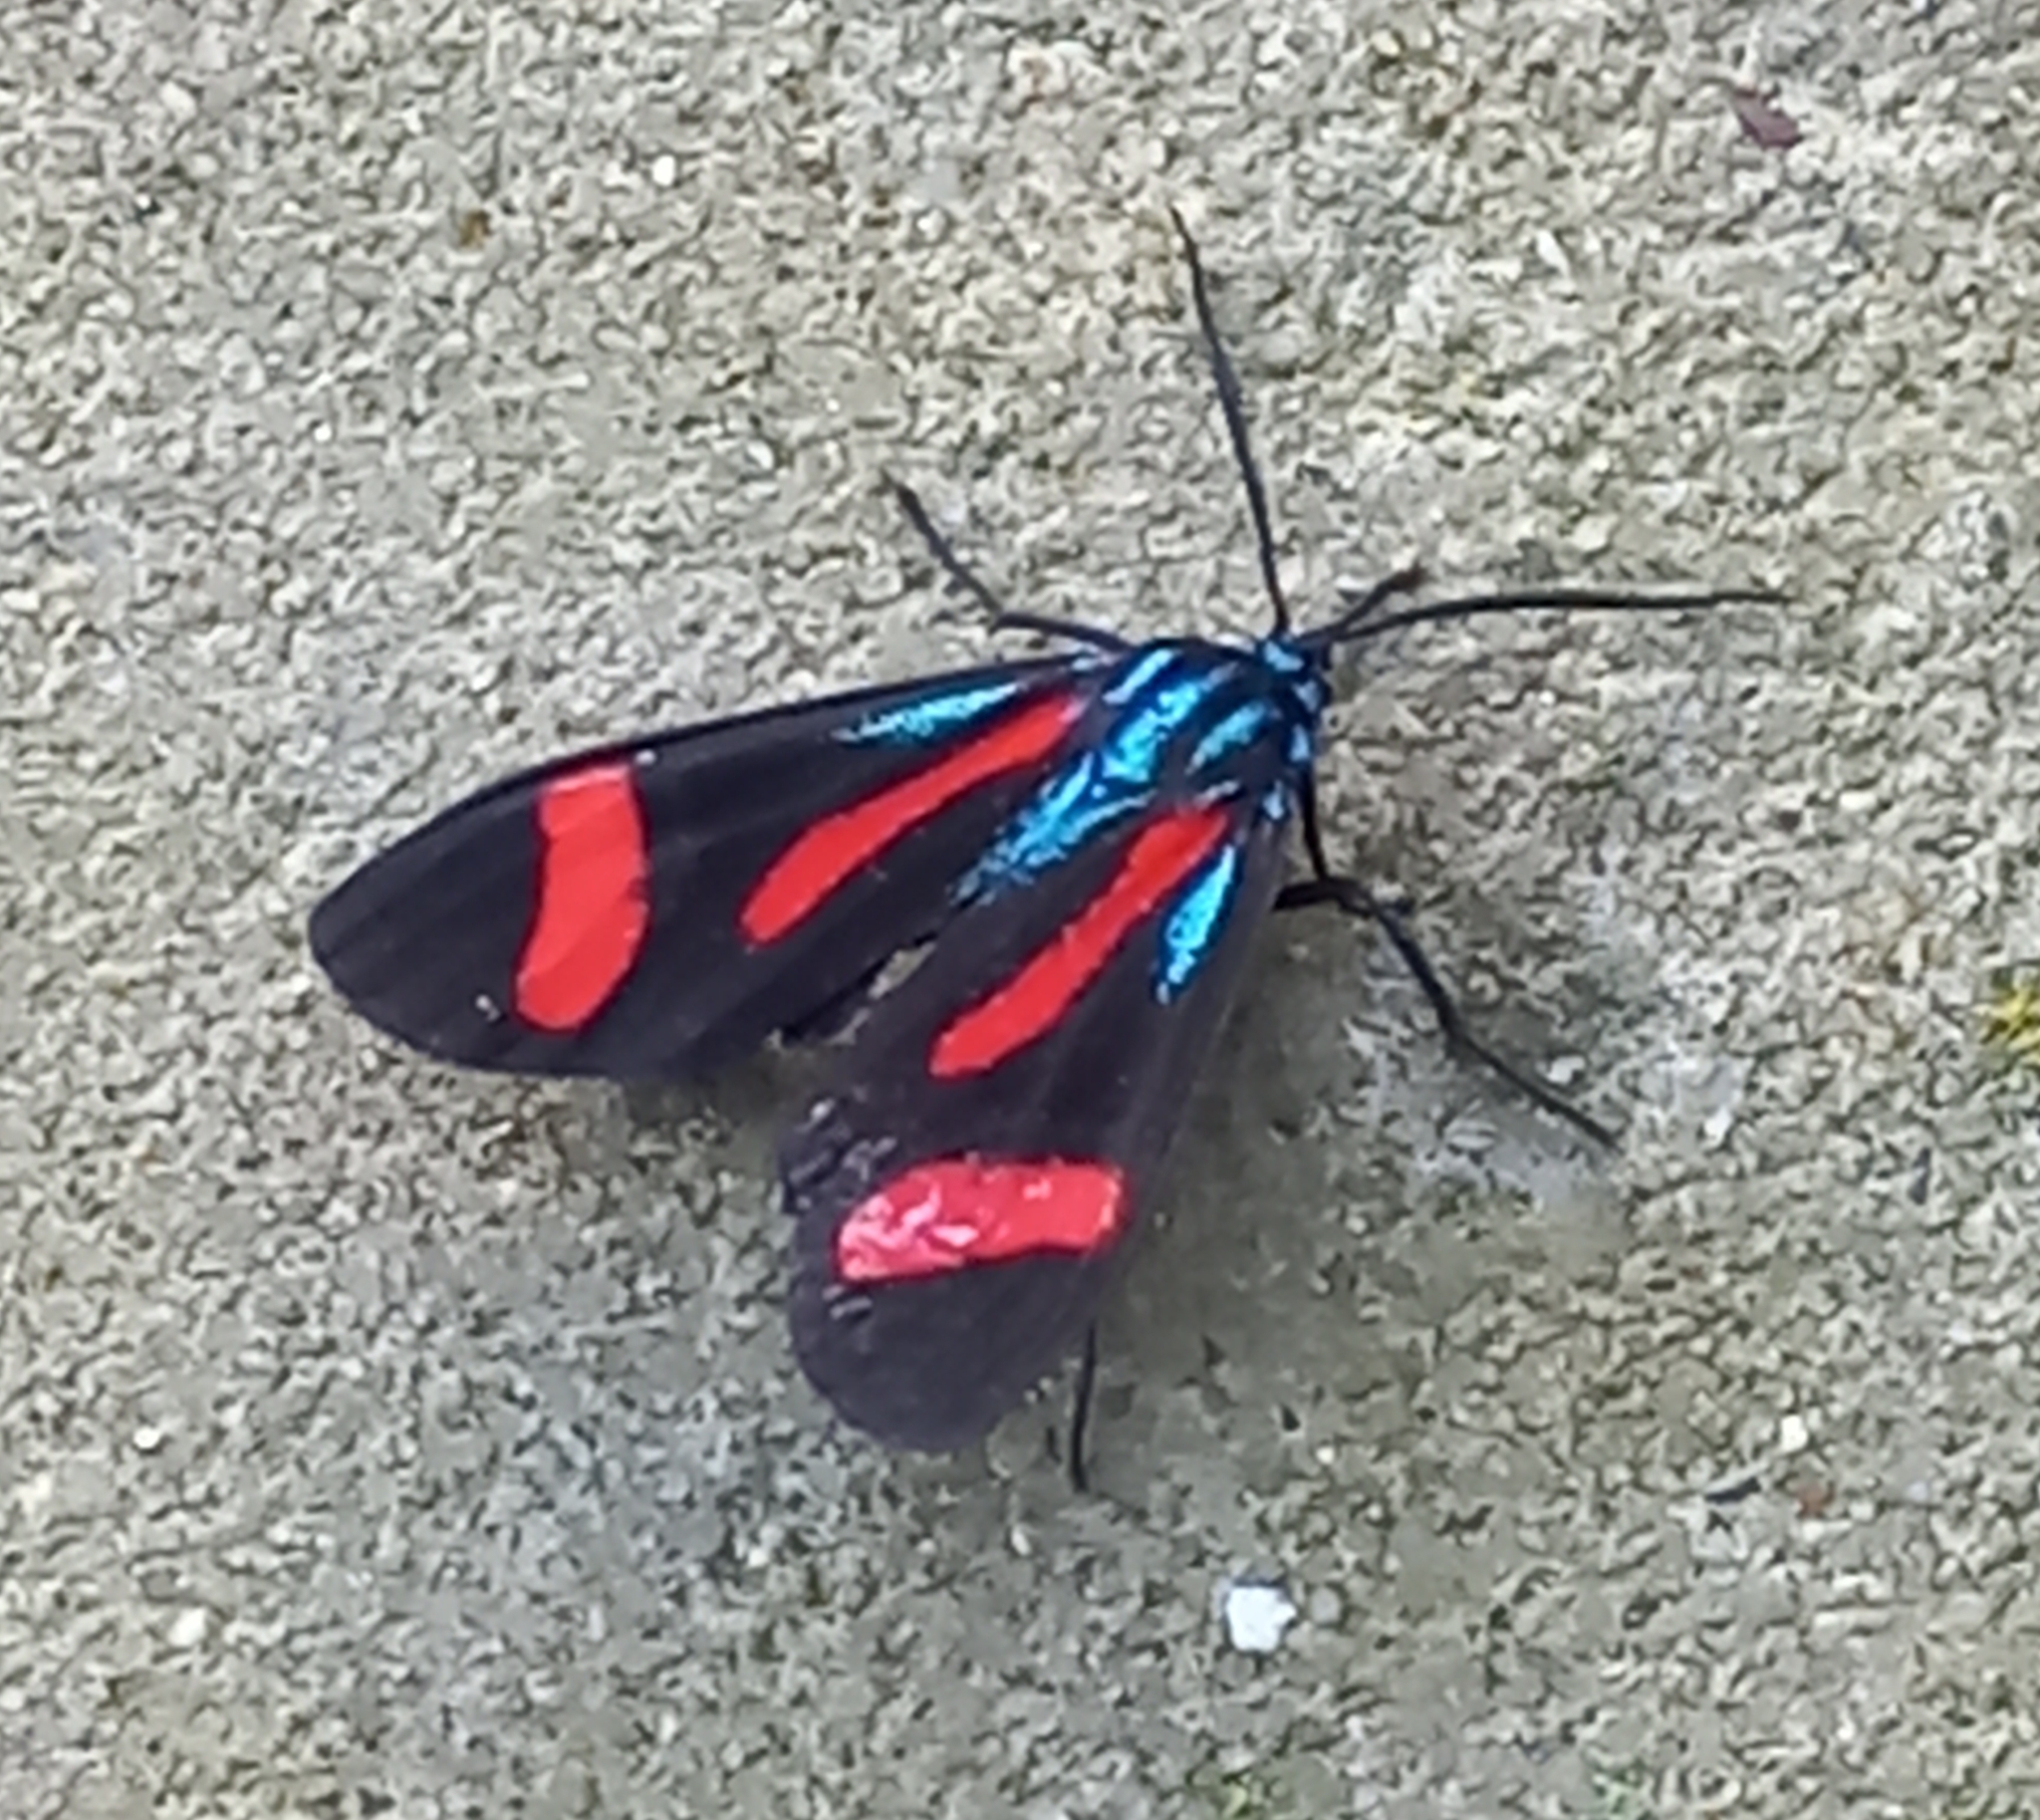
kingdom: Animalia
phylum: Arthropoda
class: Insecta
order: Lepidoptera
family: Erebidae
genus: Cyanopepla
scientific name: Cyanopepla jucunda
